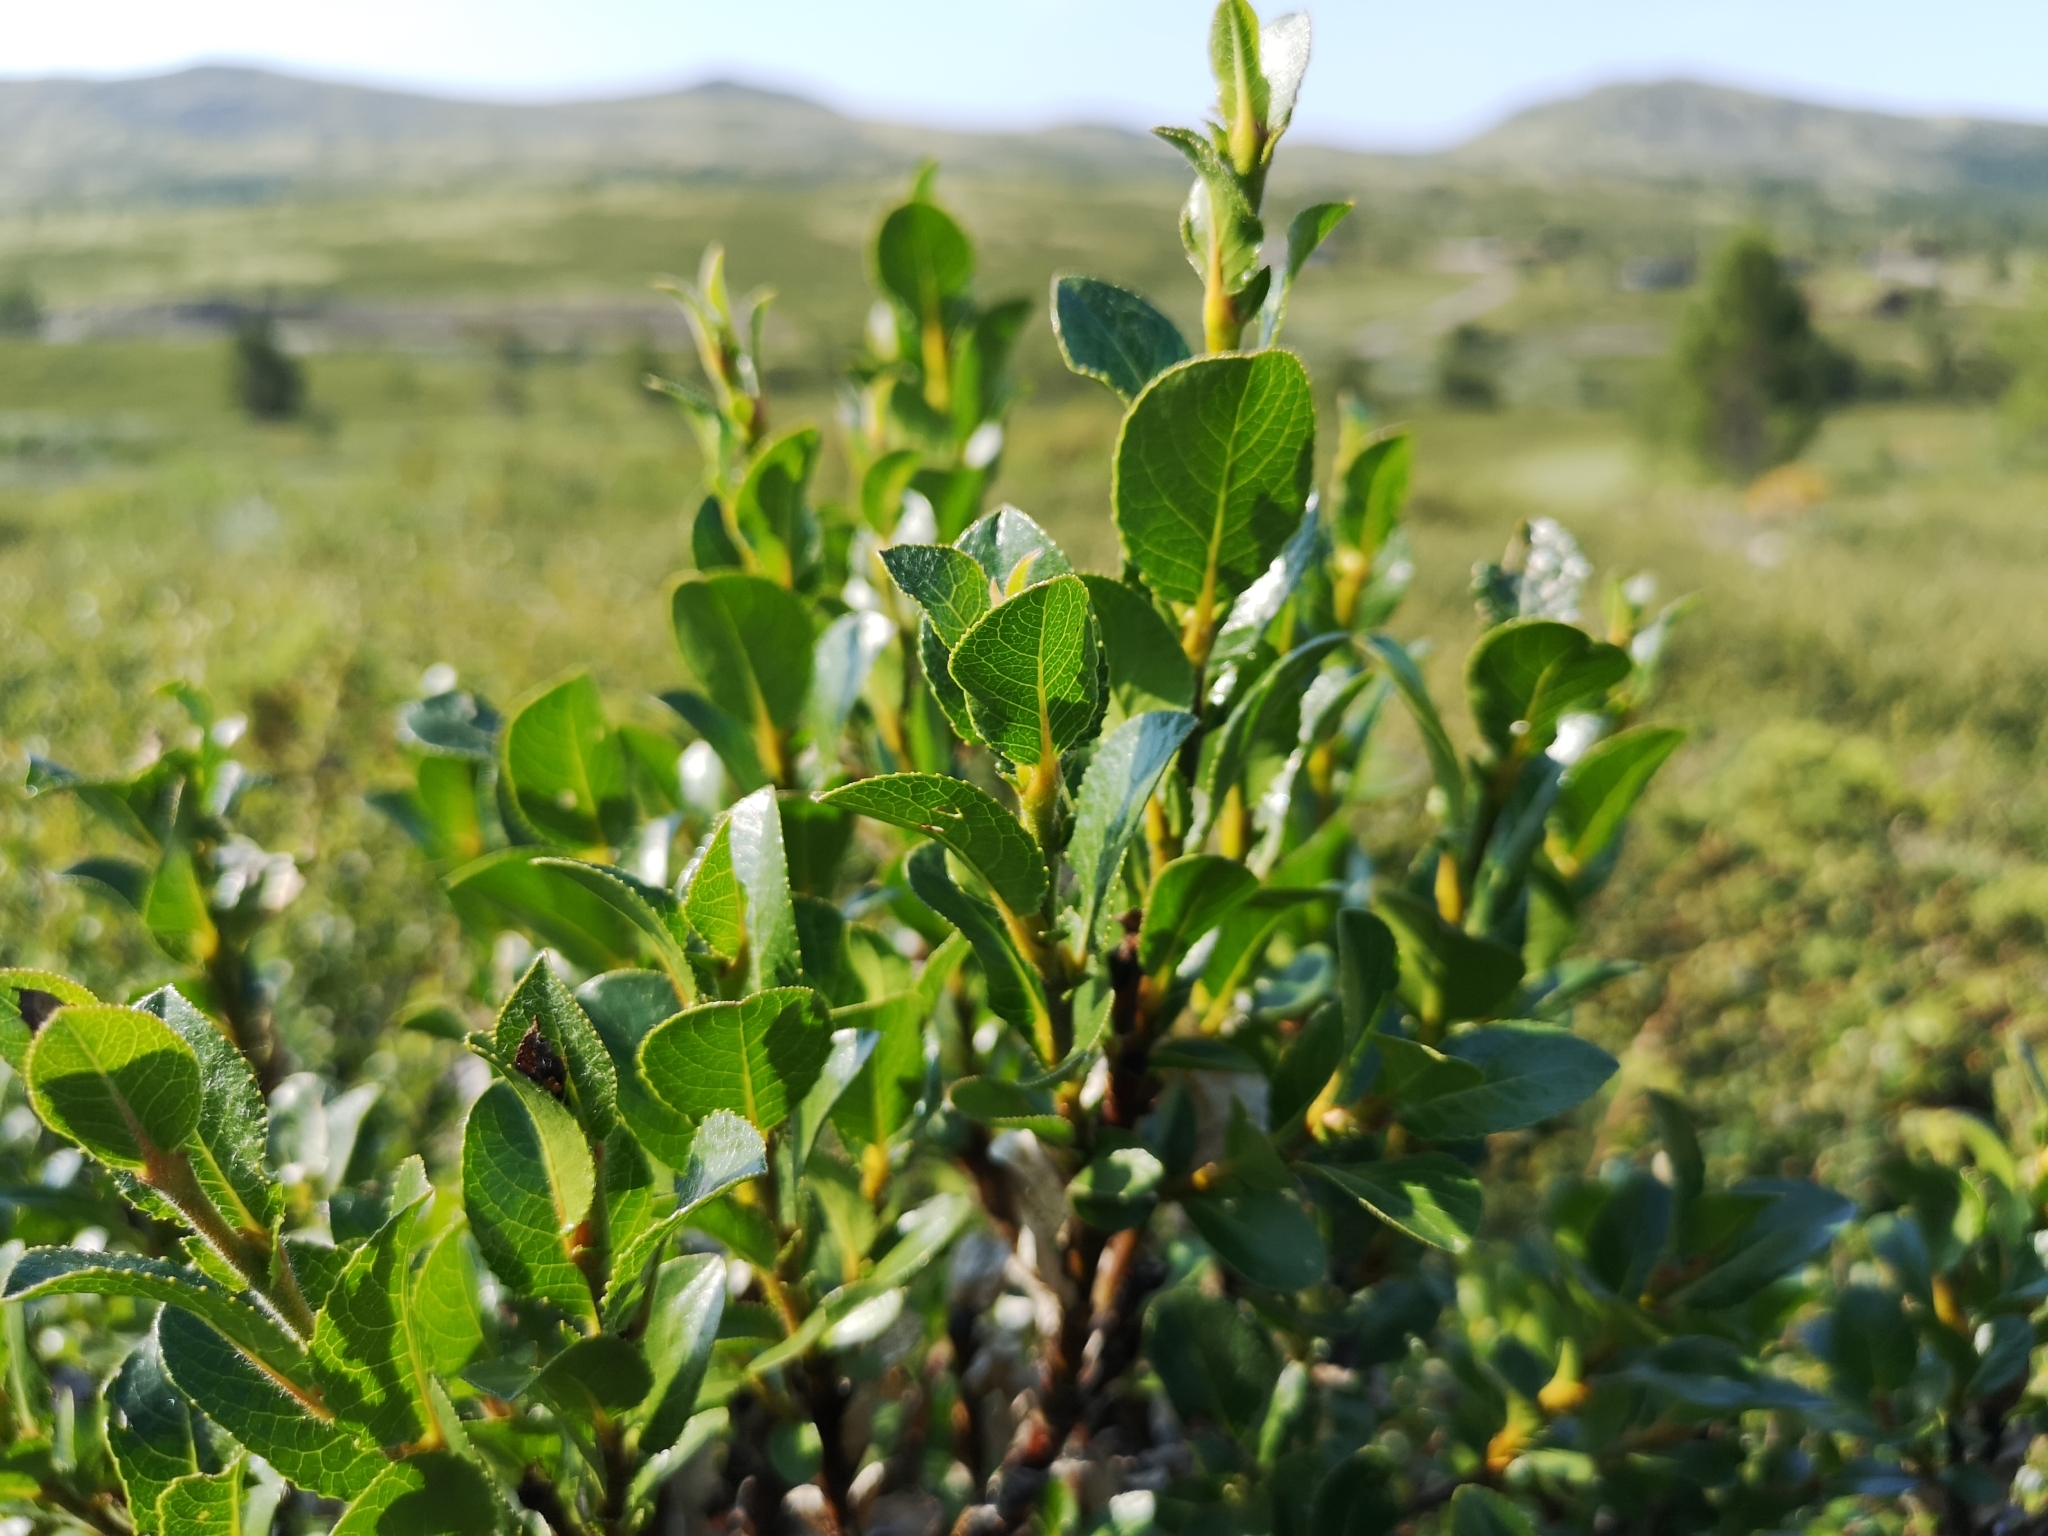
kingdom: Plantae
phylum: Tracheophyta
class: Magnoliopsida
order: Malpighiales
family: Salicaceae
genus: Salix
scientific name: Salix myrsinites
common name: Myrtle willow
